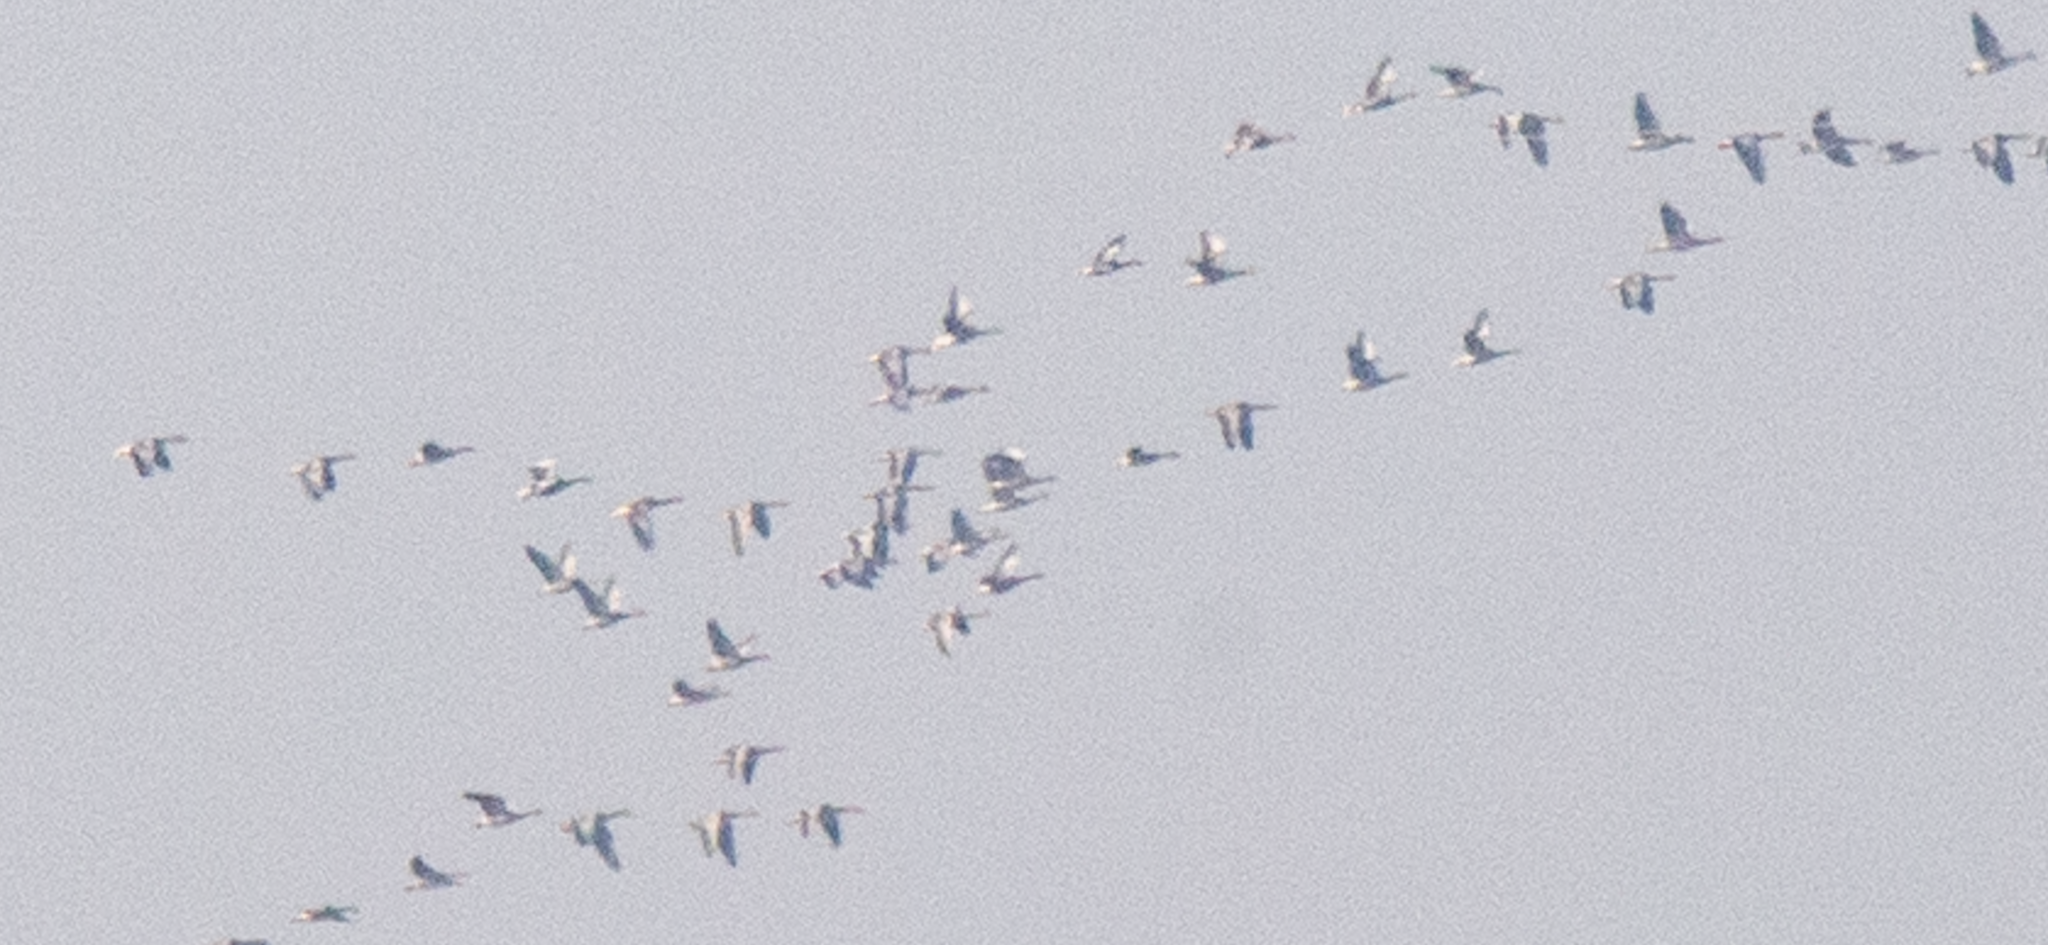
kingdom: Animalia
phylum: Chordata
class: Aves
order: Anseriformes
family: Anatidae
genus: Anser
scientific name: Anser anser
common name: Greylag goose
